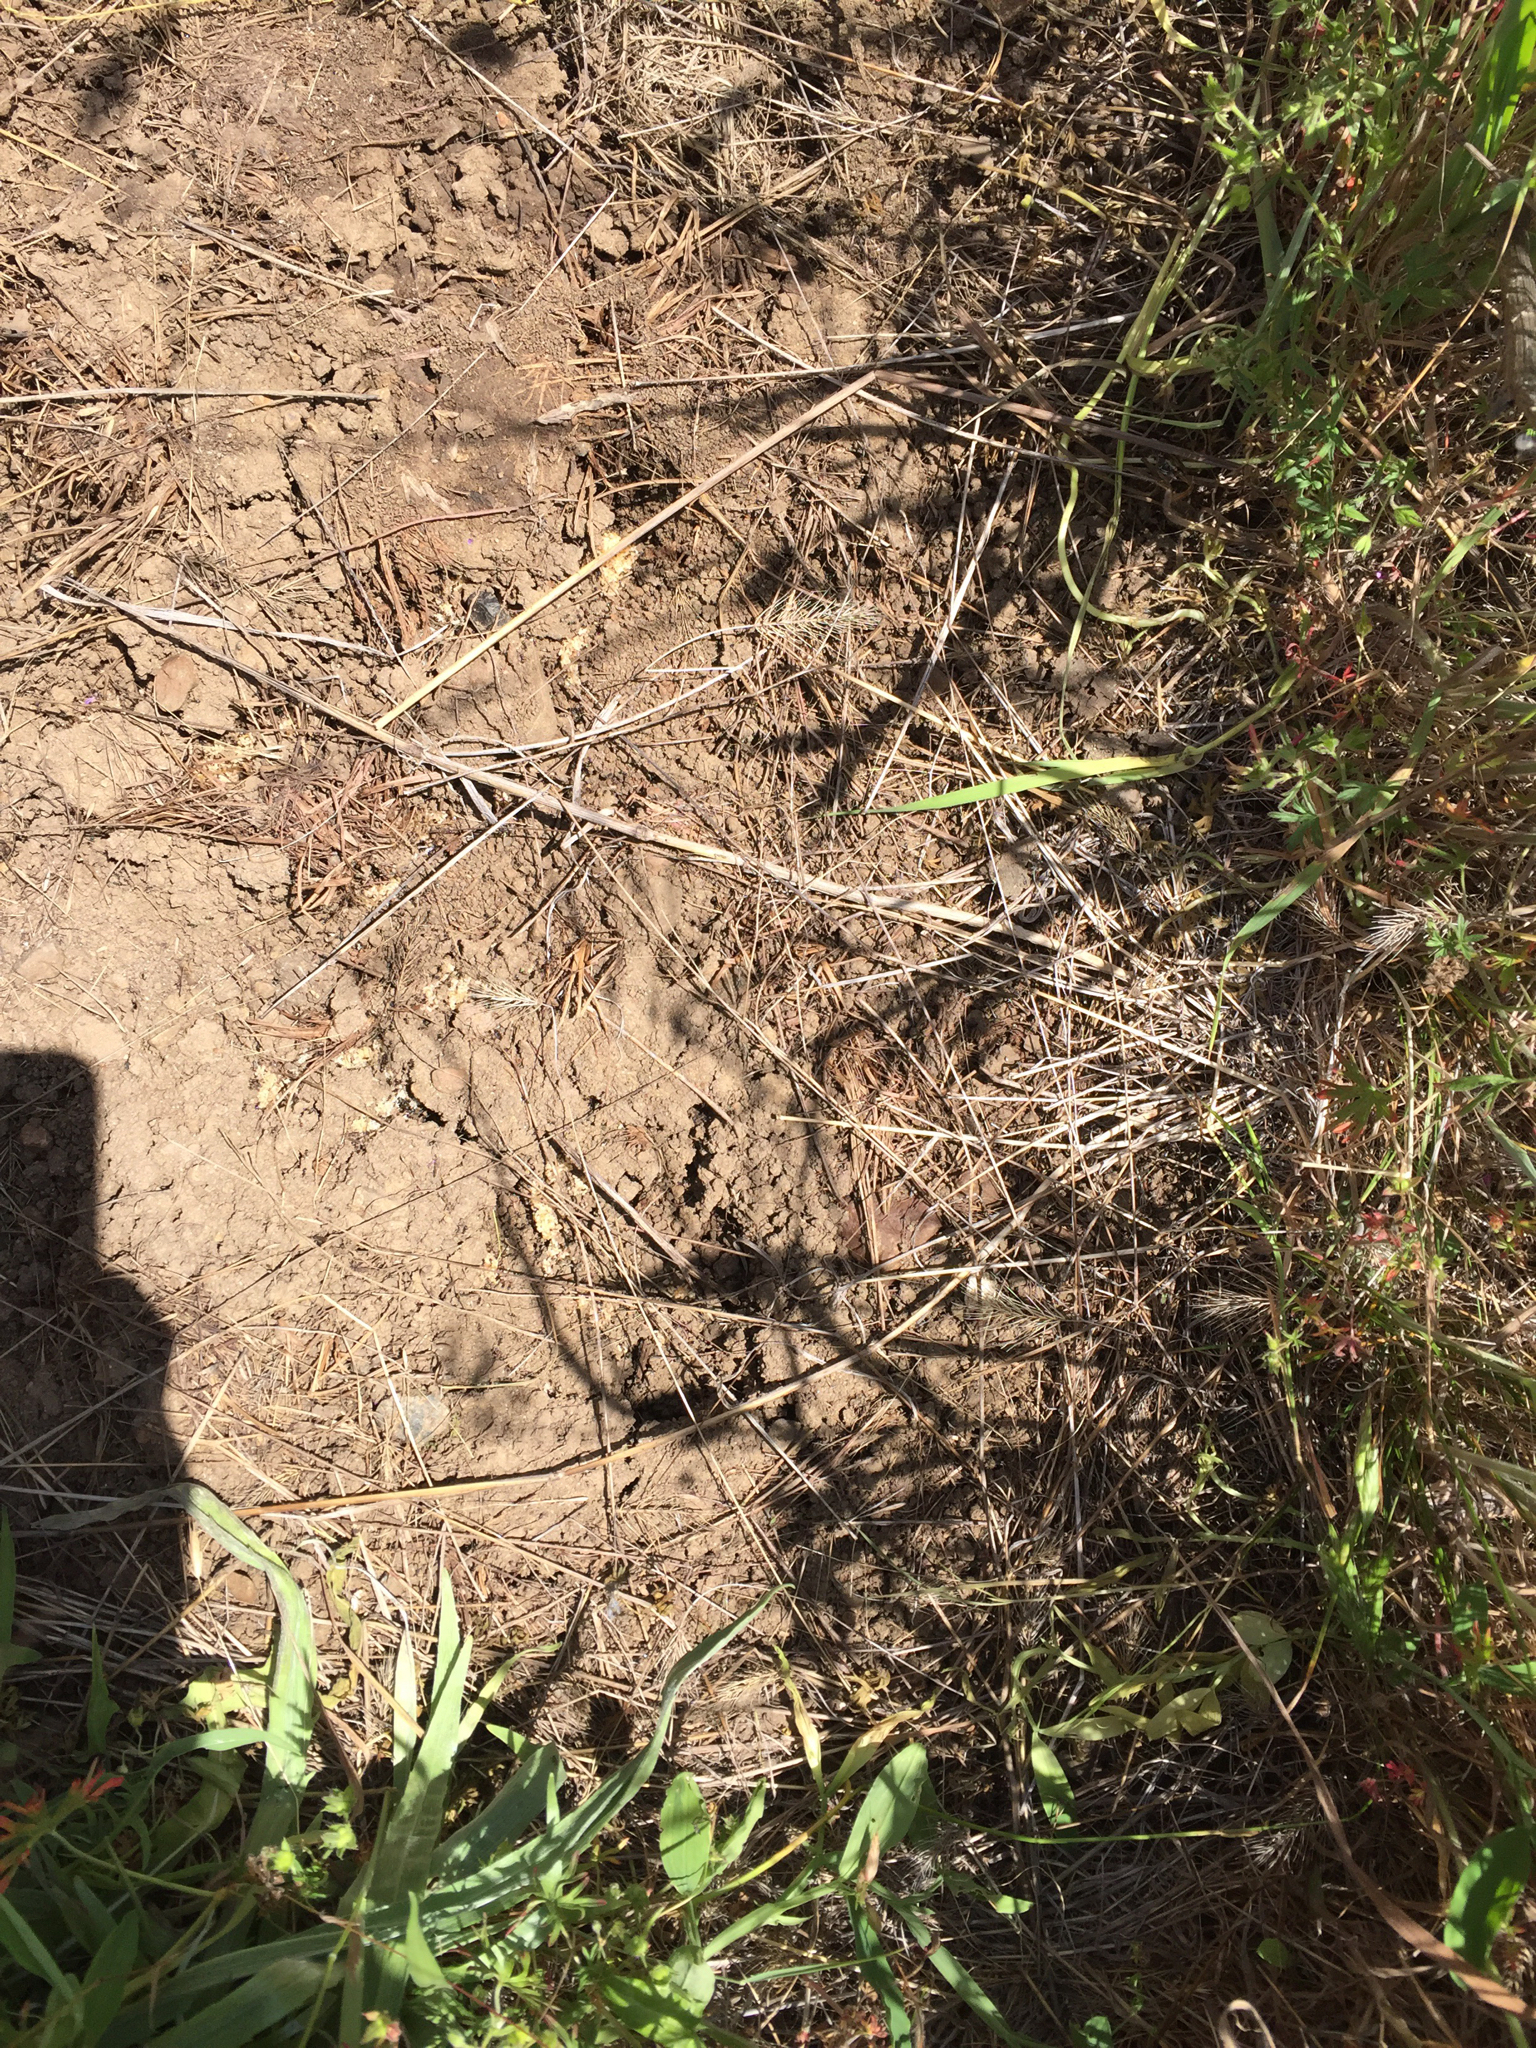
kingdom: Animalia
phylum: Chordata
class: Squamata
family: Scincidae
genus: Plestiodon
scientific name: Plestiodon skiltonianus
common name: Coronado island skink [interparietalis]
